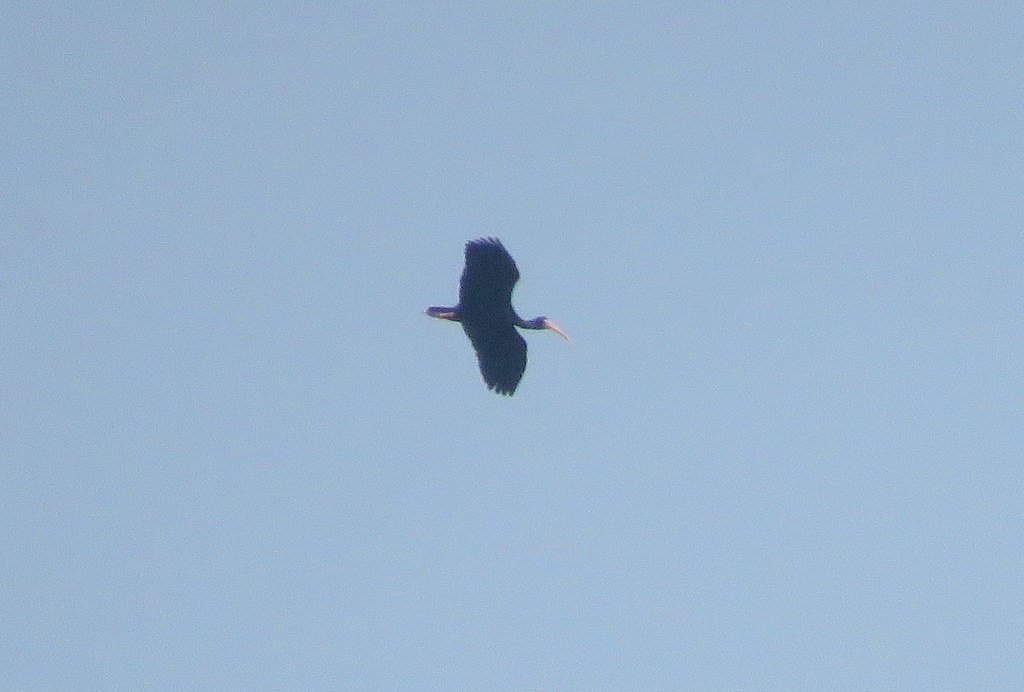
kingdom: Animalia
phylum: Chordata
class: Aves
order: Pelecaniformes
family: Threskiornithidae
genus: Phimosus
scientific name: Phimosus infuscatus
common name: Bare-faced ibis
